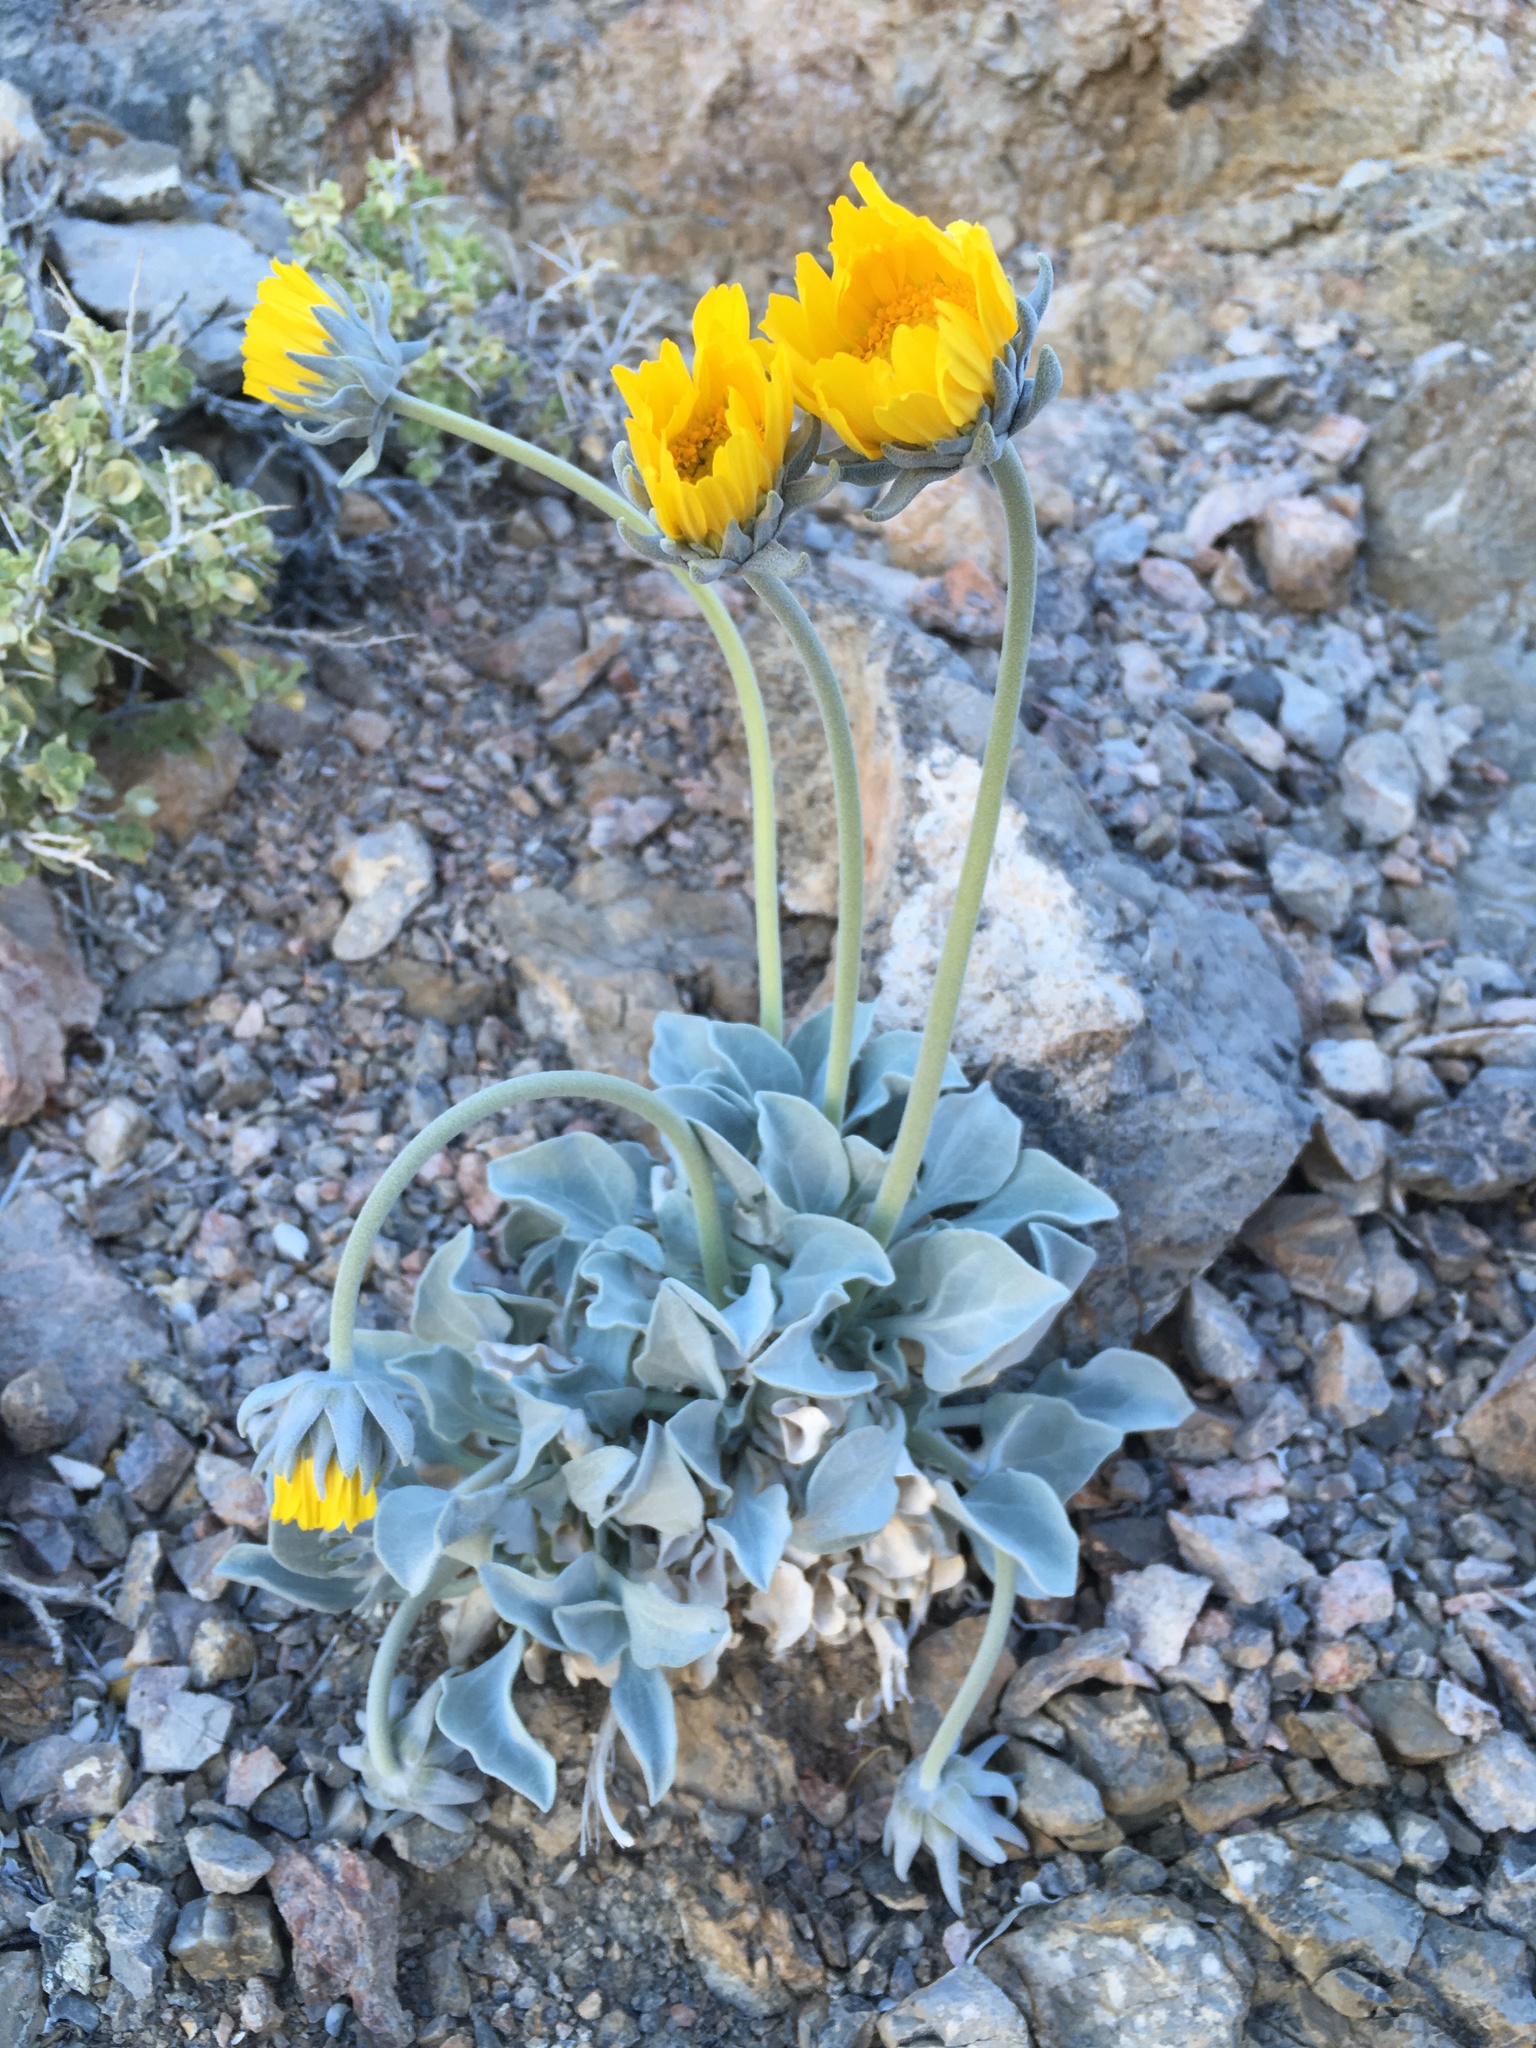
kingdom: Plantae
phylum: Tracheophyta
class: Magnoliopsida
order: Asterales
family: Asteraceae
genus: Enceliopsis
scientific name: Enceliopsis nudicaulis
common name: Naked-stem daisy
